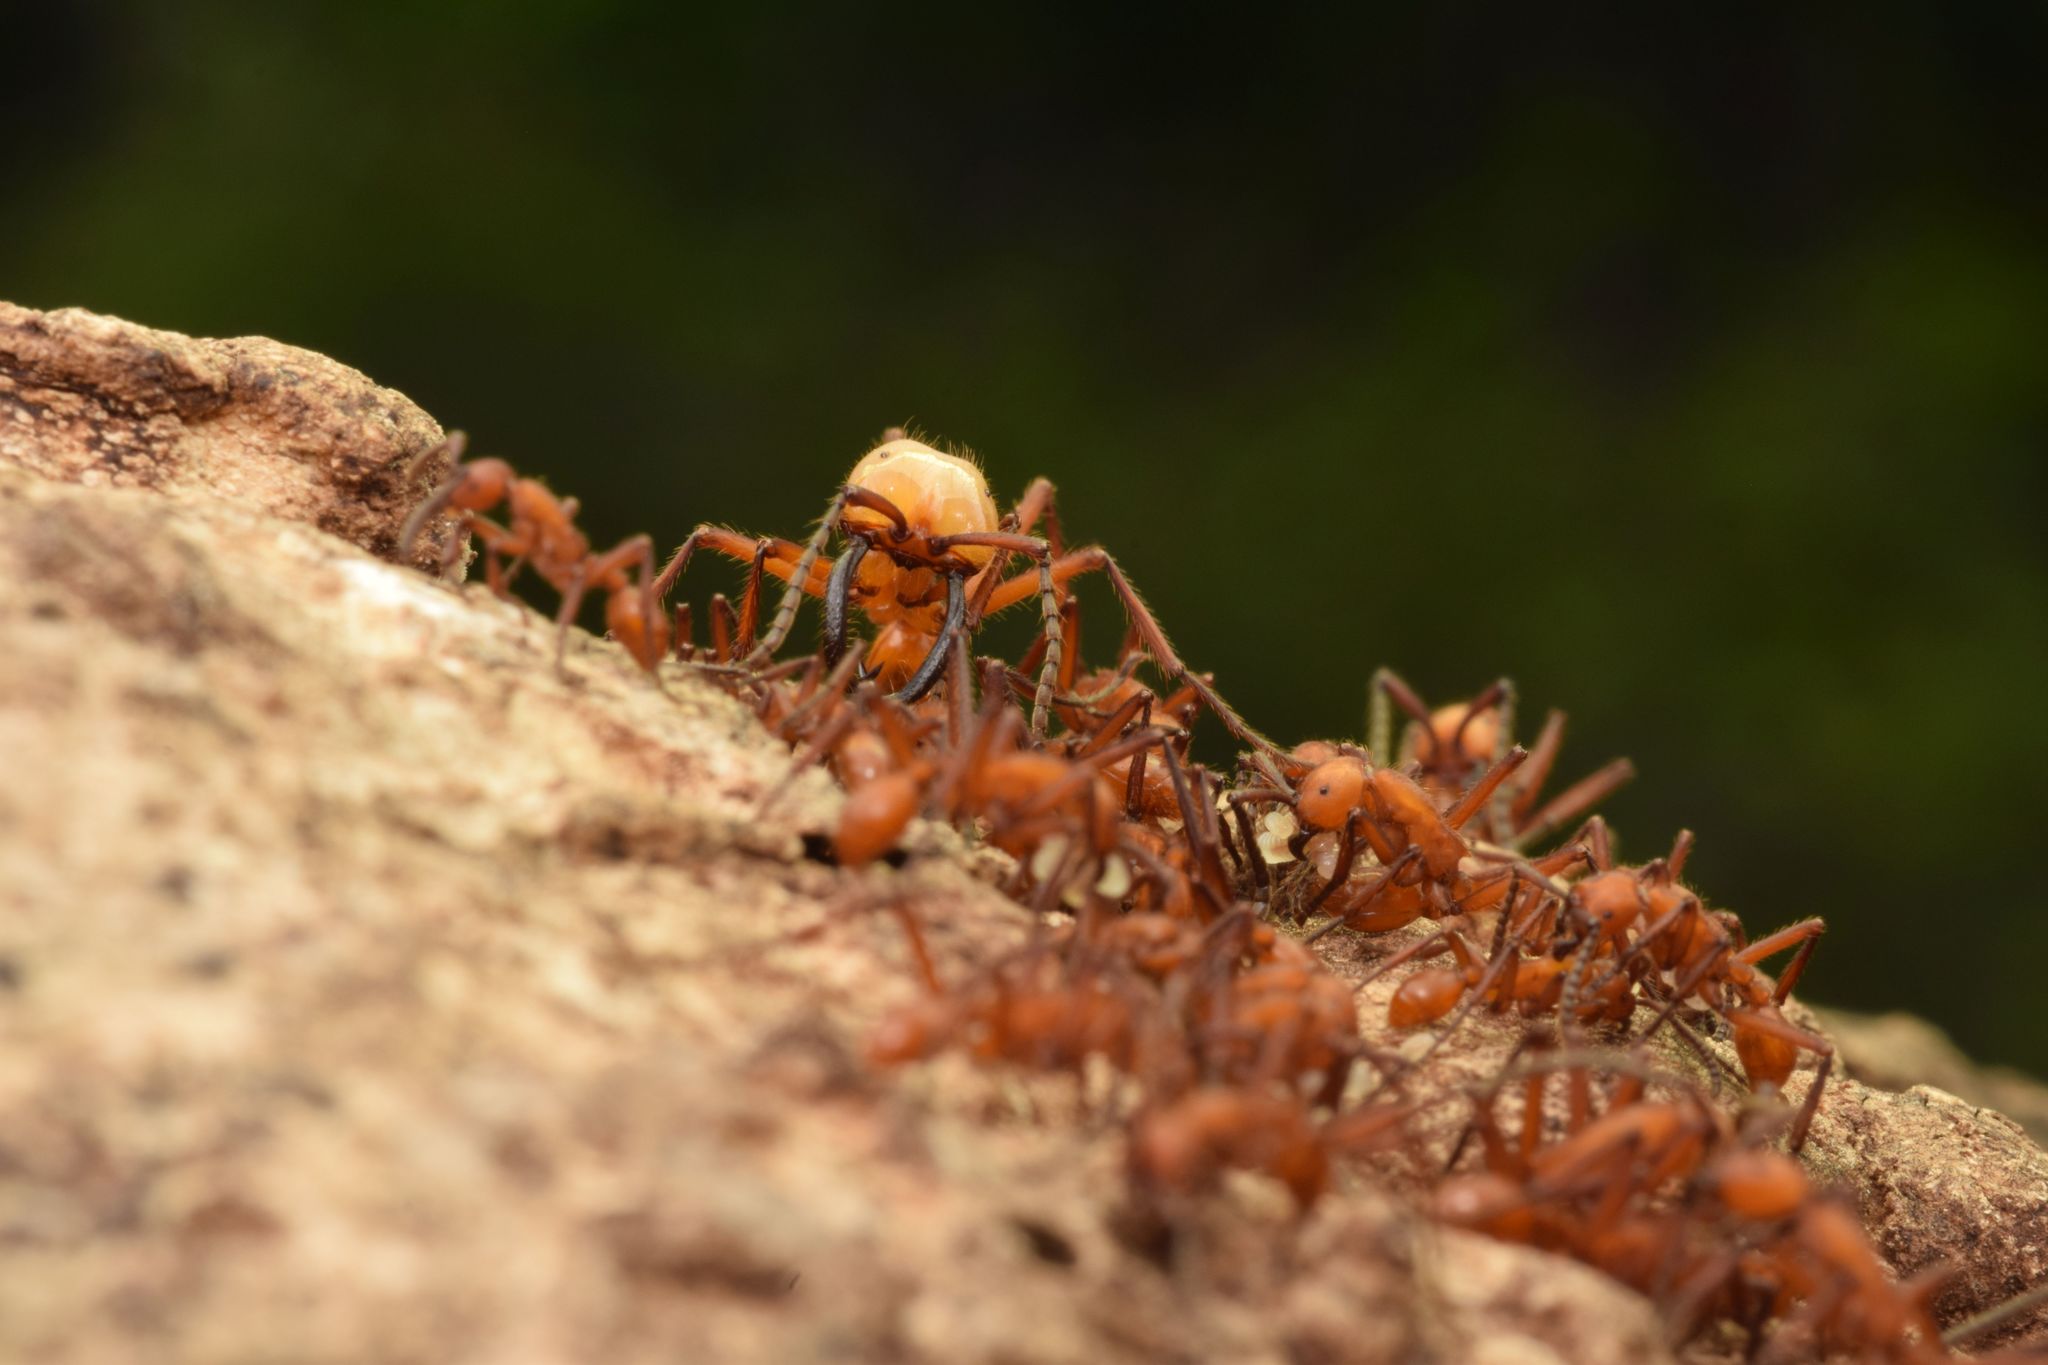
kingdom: Animalia
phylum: Arthropoda
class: Insecta
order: Hymenoptera
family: Formicidae
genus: Eciton
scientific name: Eciton hamatum
